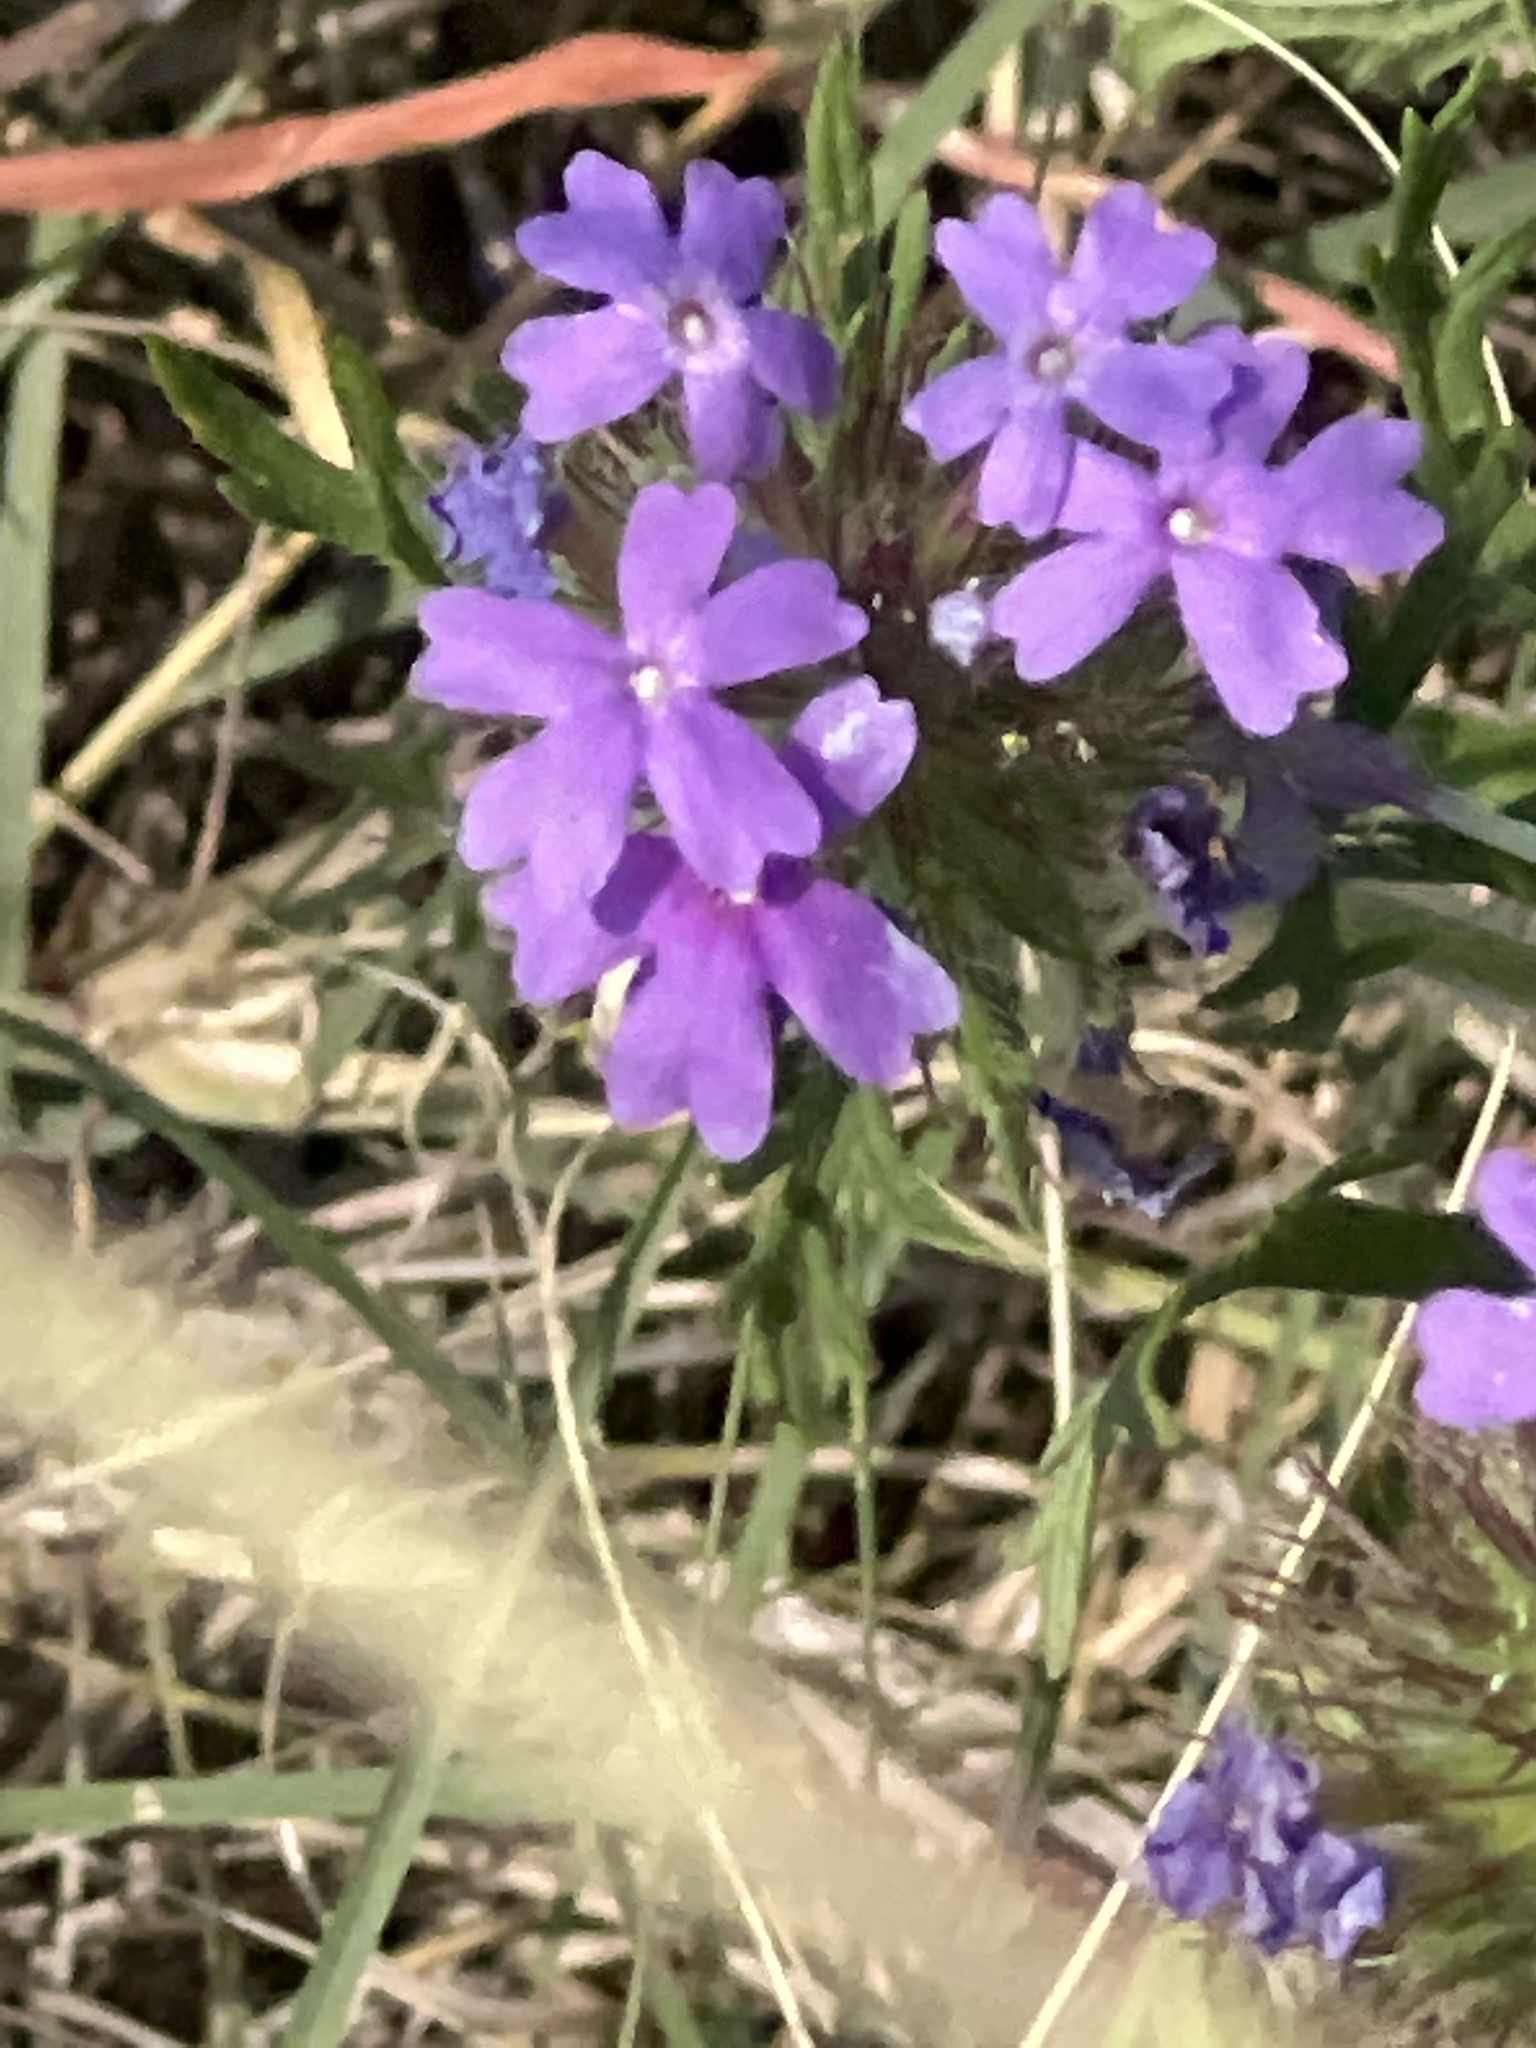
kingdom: Plantae
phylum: Tracheophyta
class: Magnoliopsida
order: Lamiales
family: Verbenaceae
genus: Verbena
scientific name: Verbena bipinnatifida
